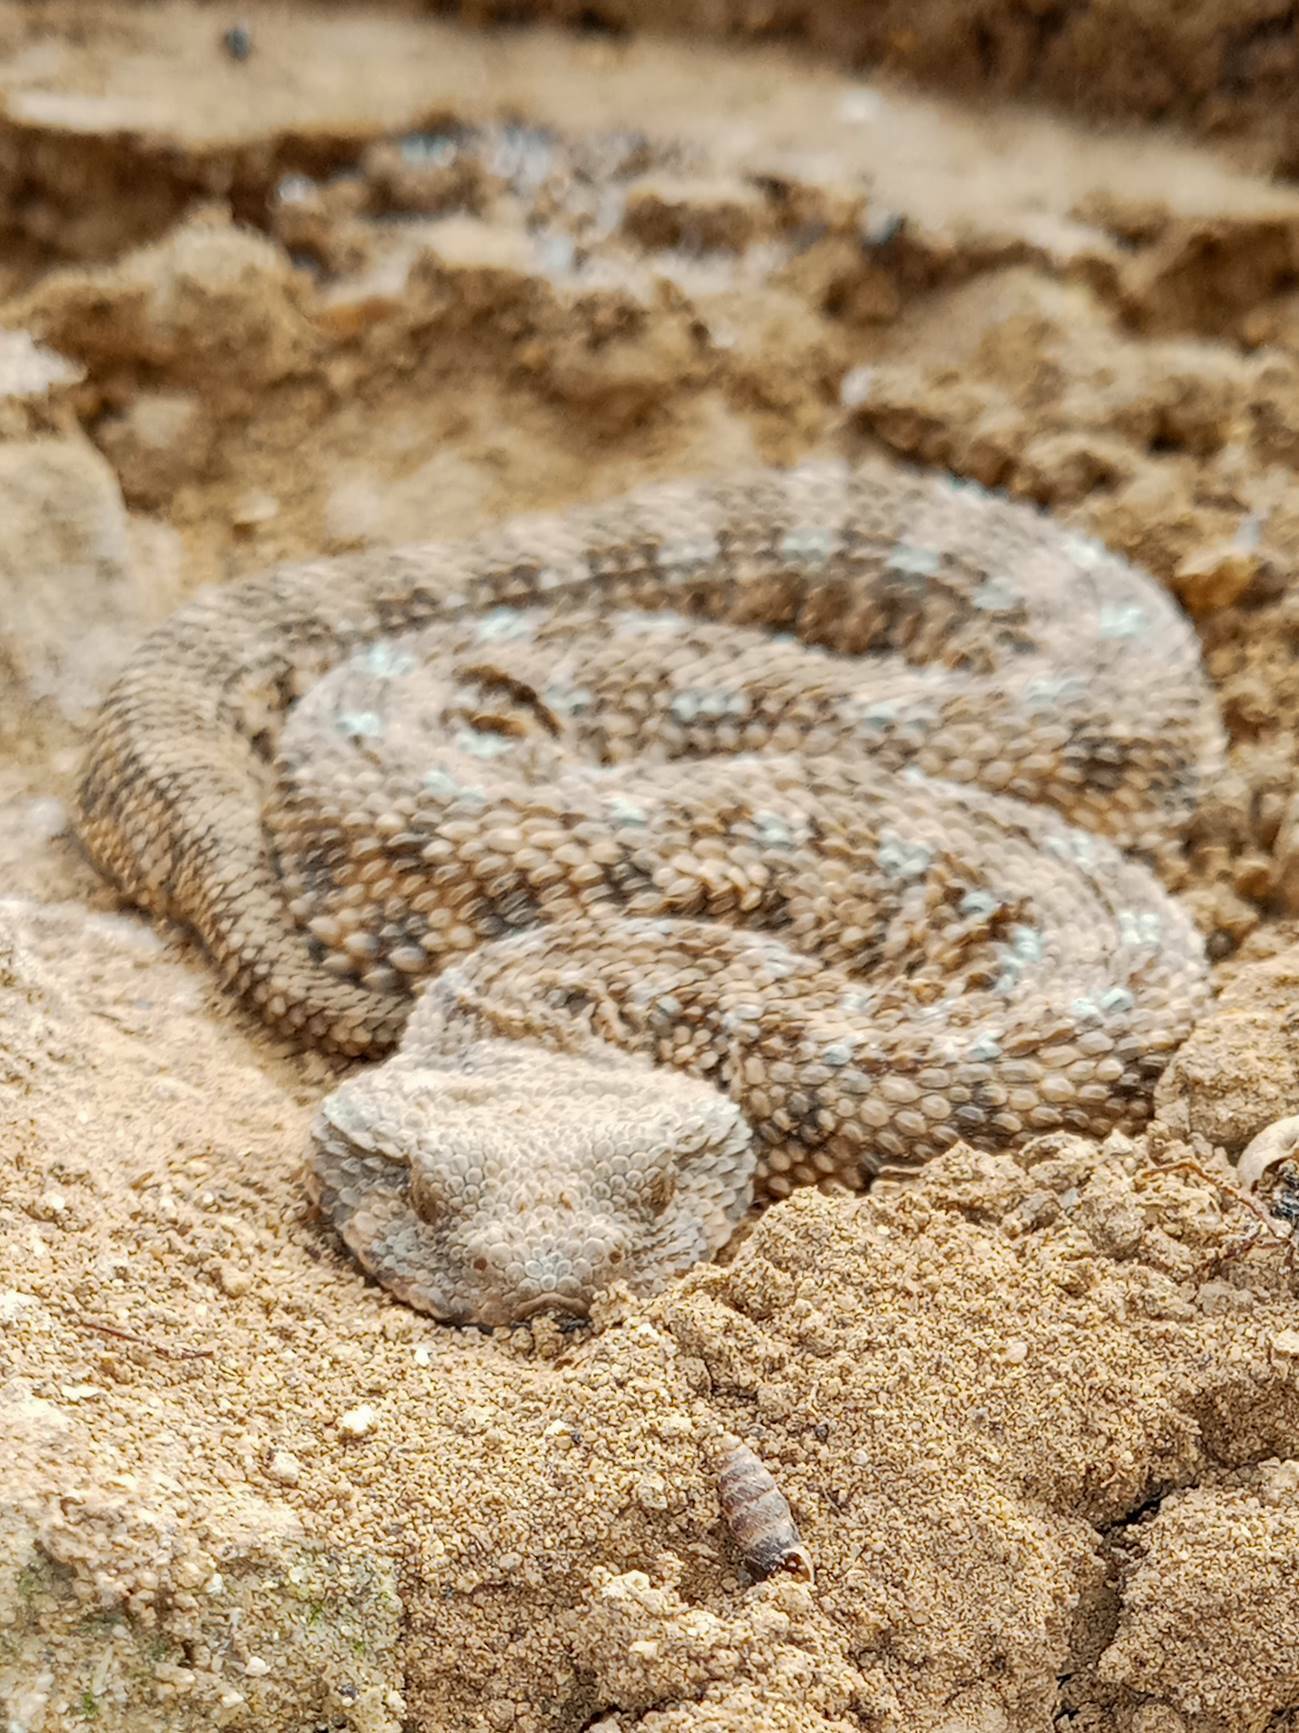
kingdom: Animalia
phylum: Chordata
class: Squamata
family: Viperidae
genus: Cerastes
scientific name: Cerastes cerastes
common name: Desert horned viper
